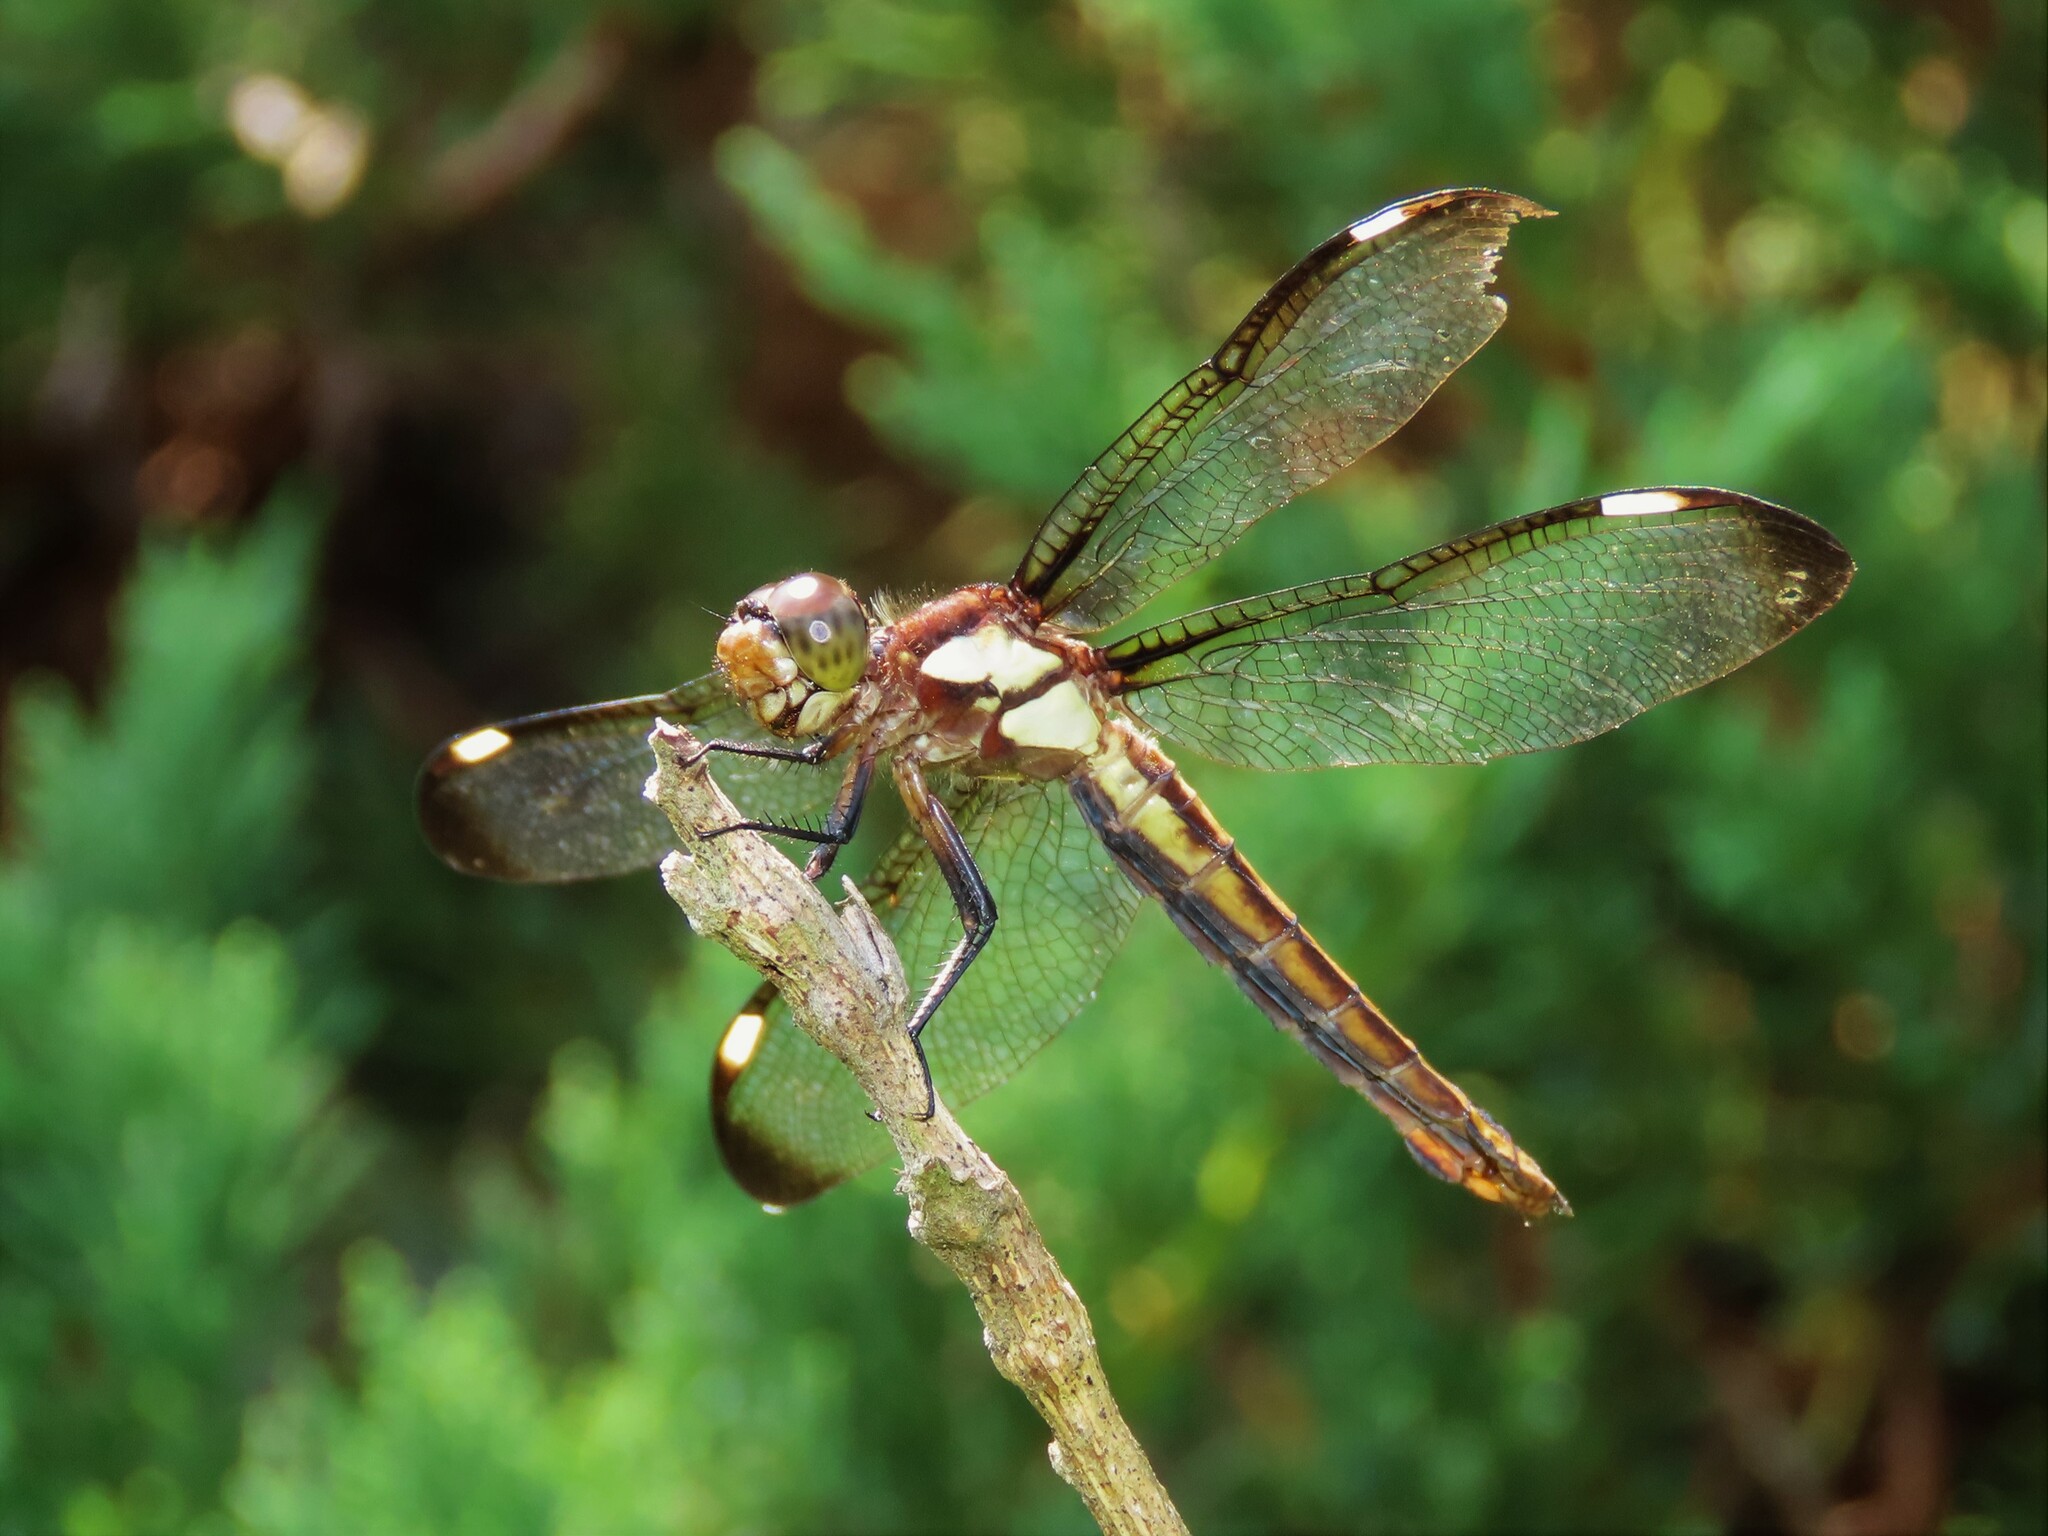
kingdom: Animalia
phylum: Arthropoda
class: Insecta
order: Odonata
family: Libellulidae
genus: Libellula
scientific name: Libellula cyanea
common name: Spangled skimmer
